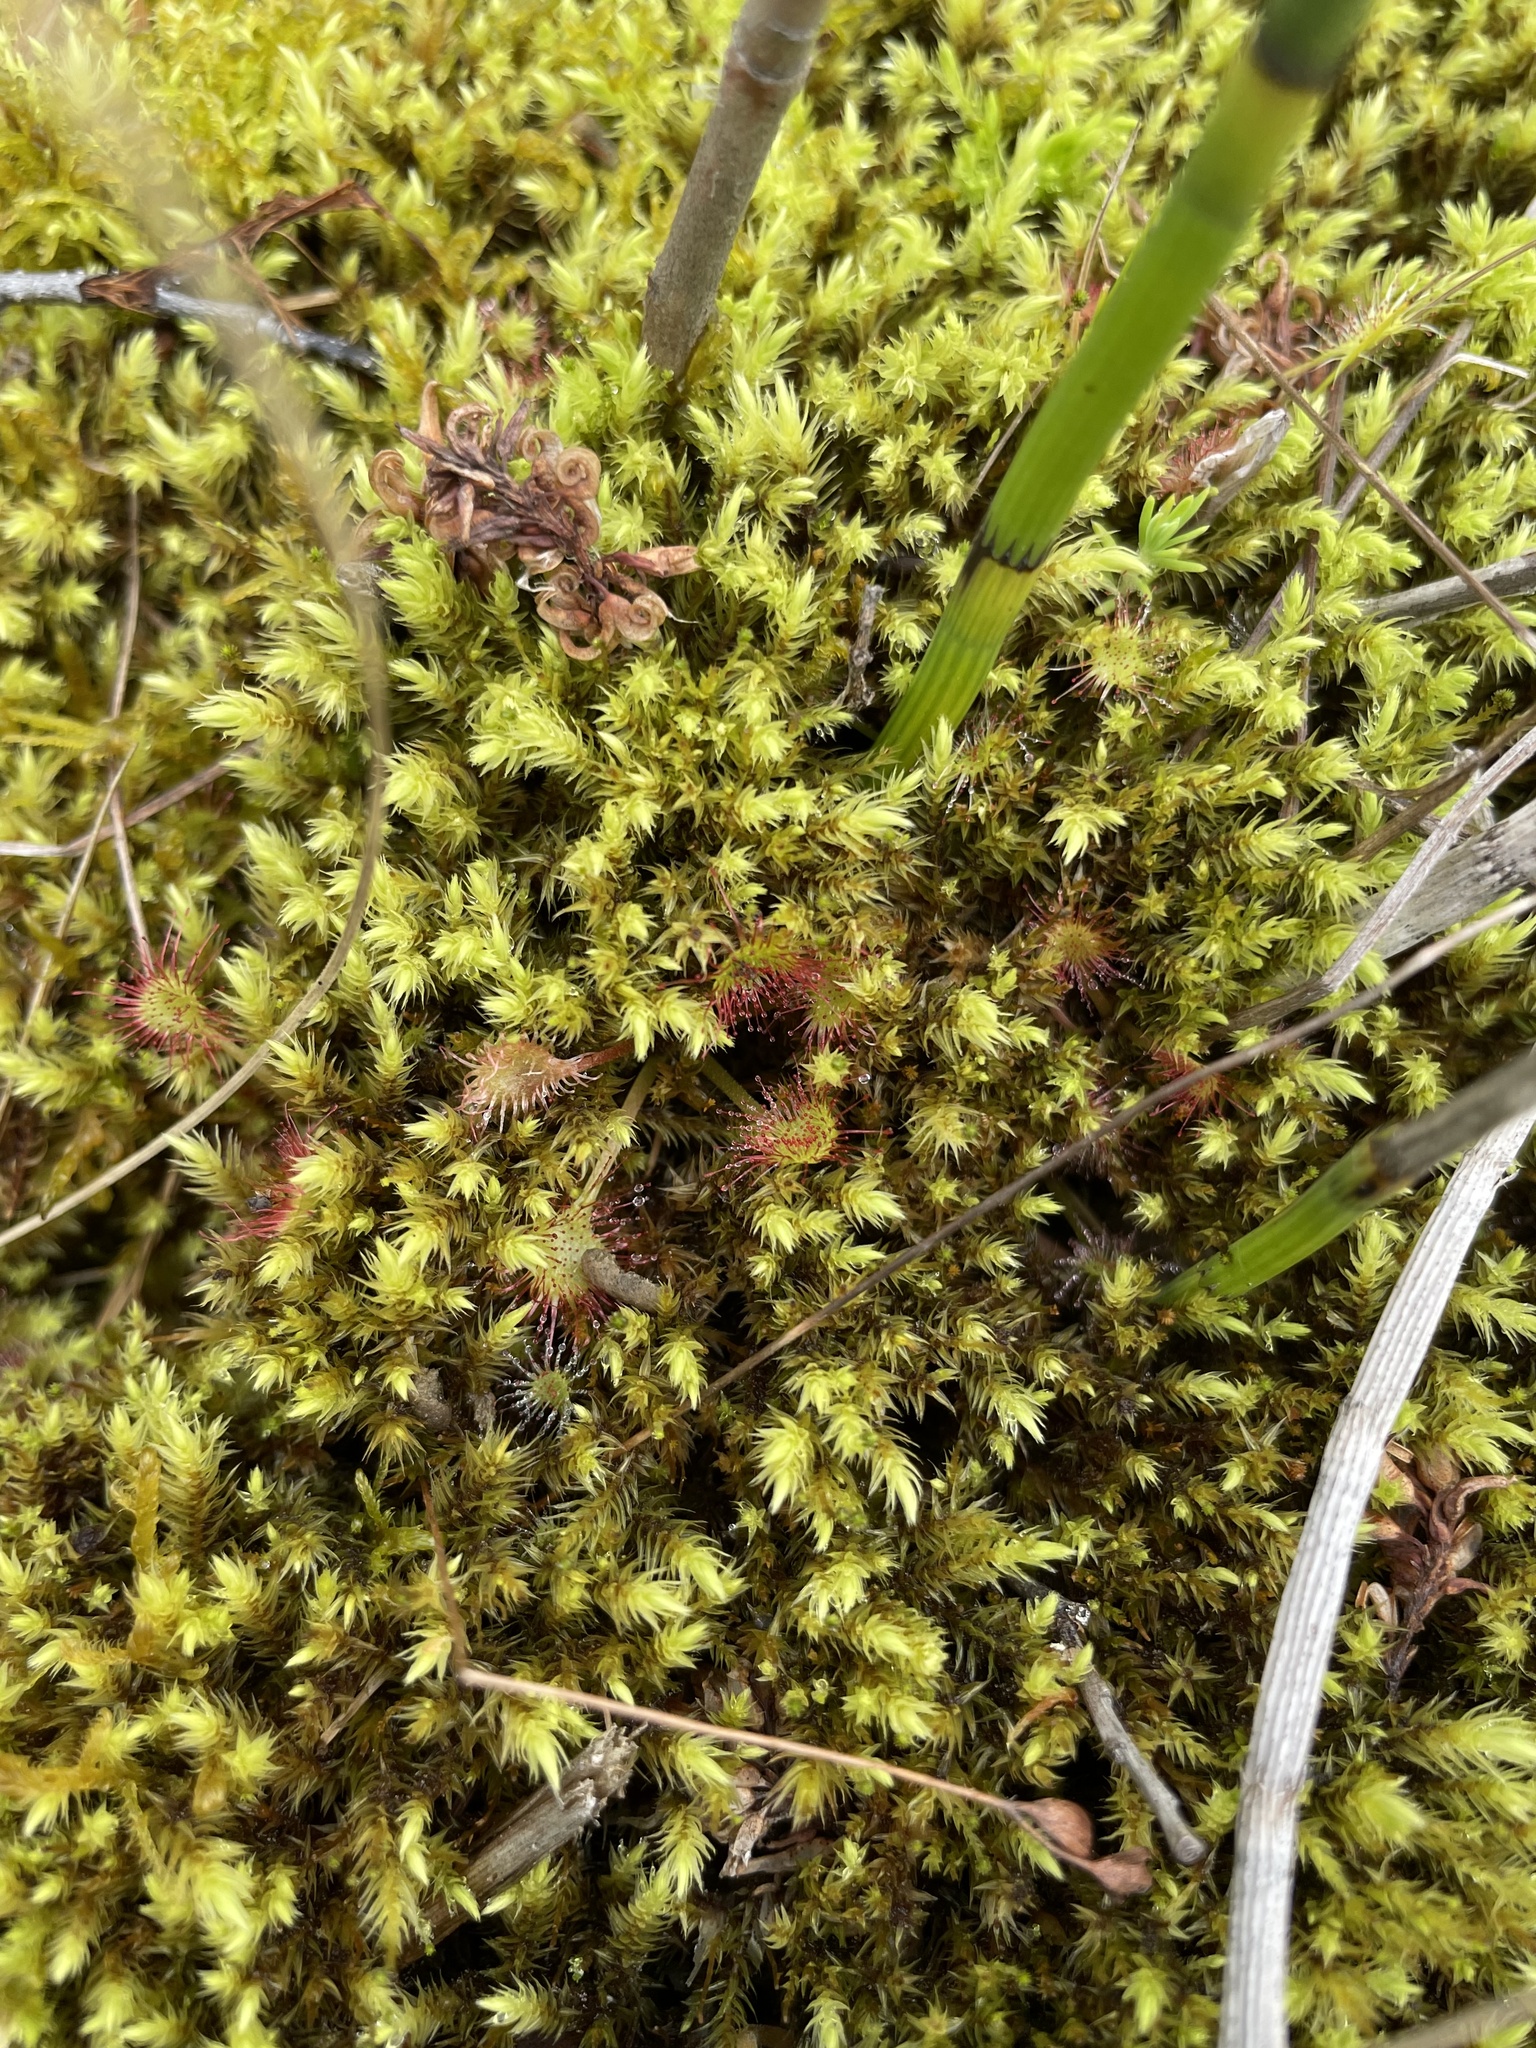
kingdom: Plantae
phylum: Tracheophyta
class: Magnoliopsida
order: Caryophyllales
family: Droseraceae
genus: Drosera
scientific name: Drosera rotundifolia
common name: Round-leaved sundew
